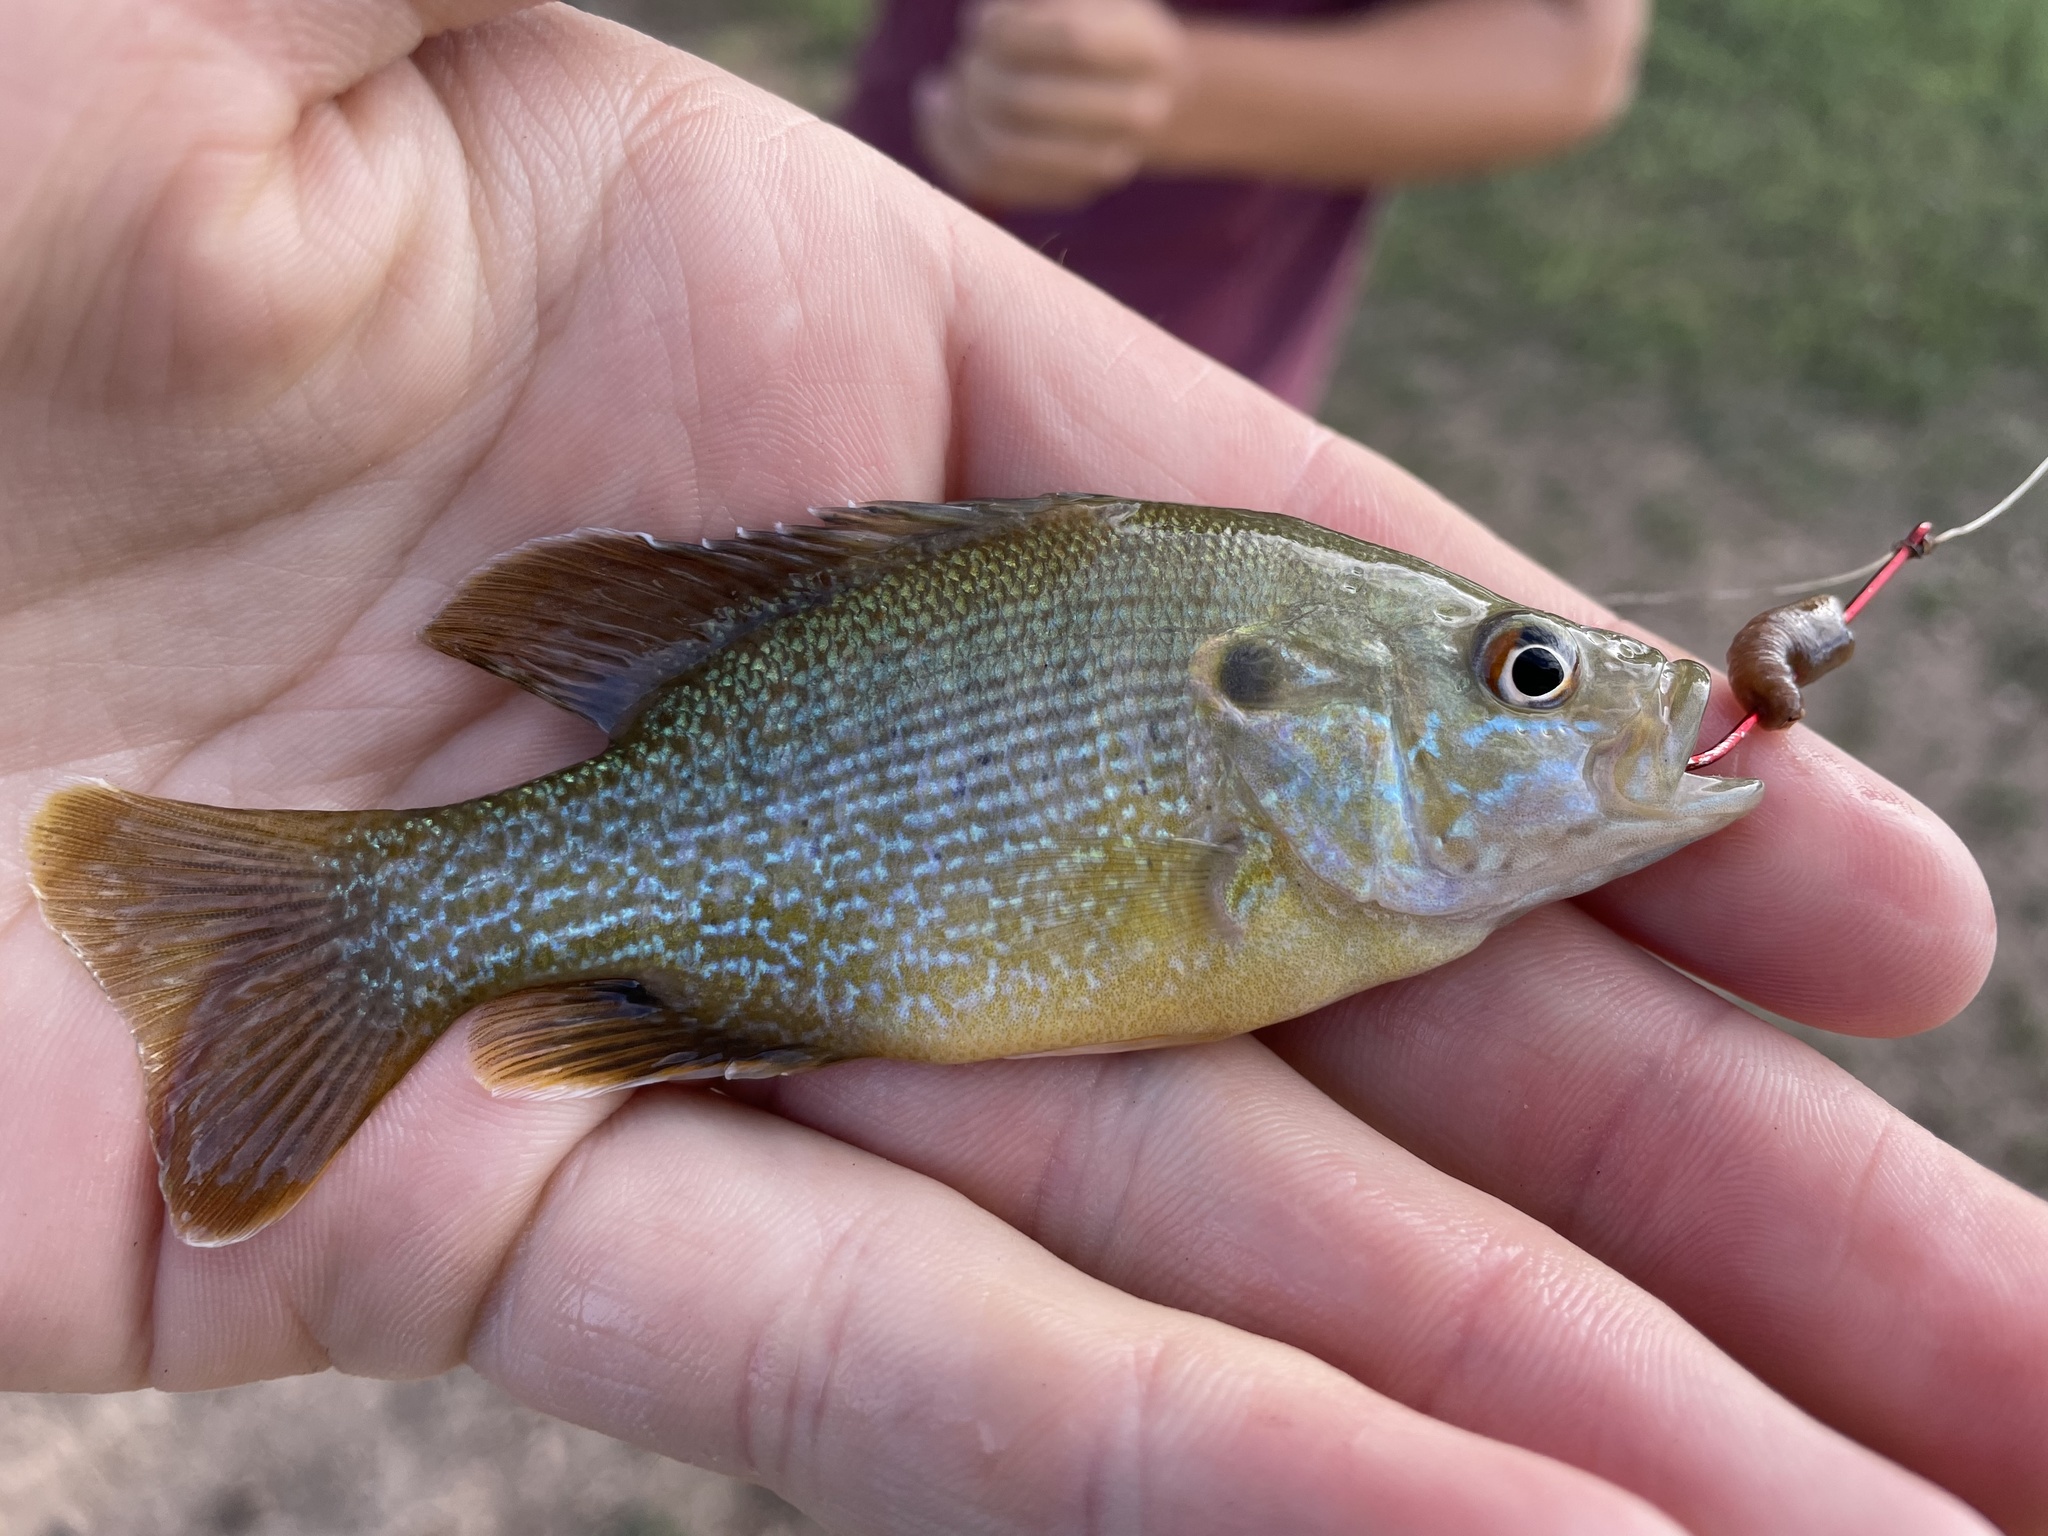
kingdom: Animalia
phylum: Chordata
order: Perciformes
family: Centrarchidae
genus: Lepomis
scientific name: Lepomis cyanellus
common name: Green sunfish
